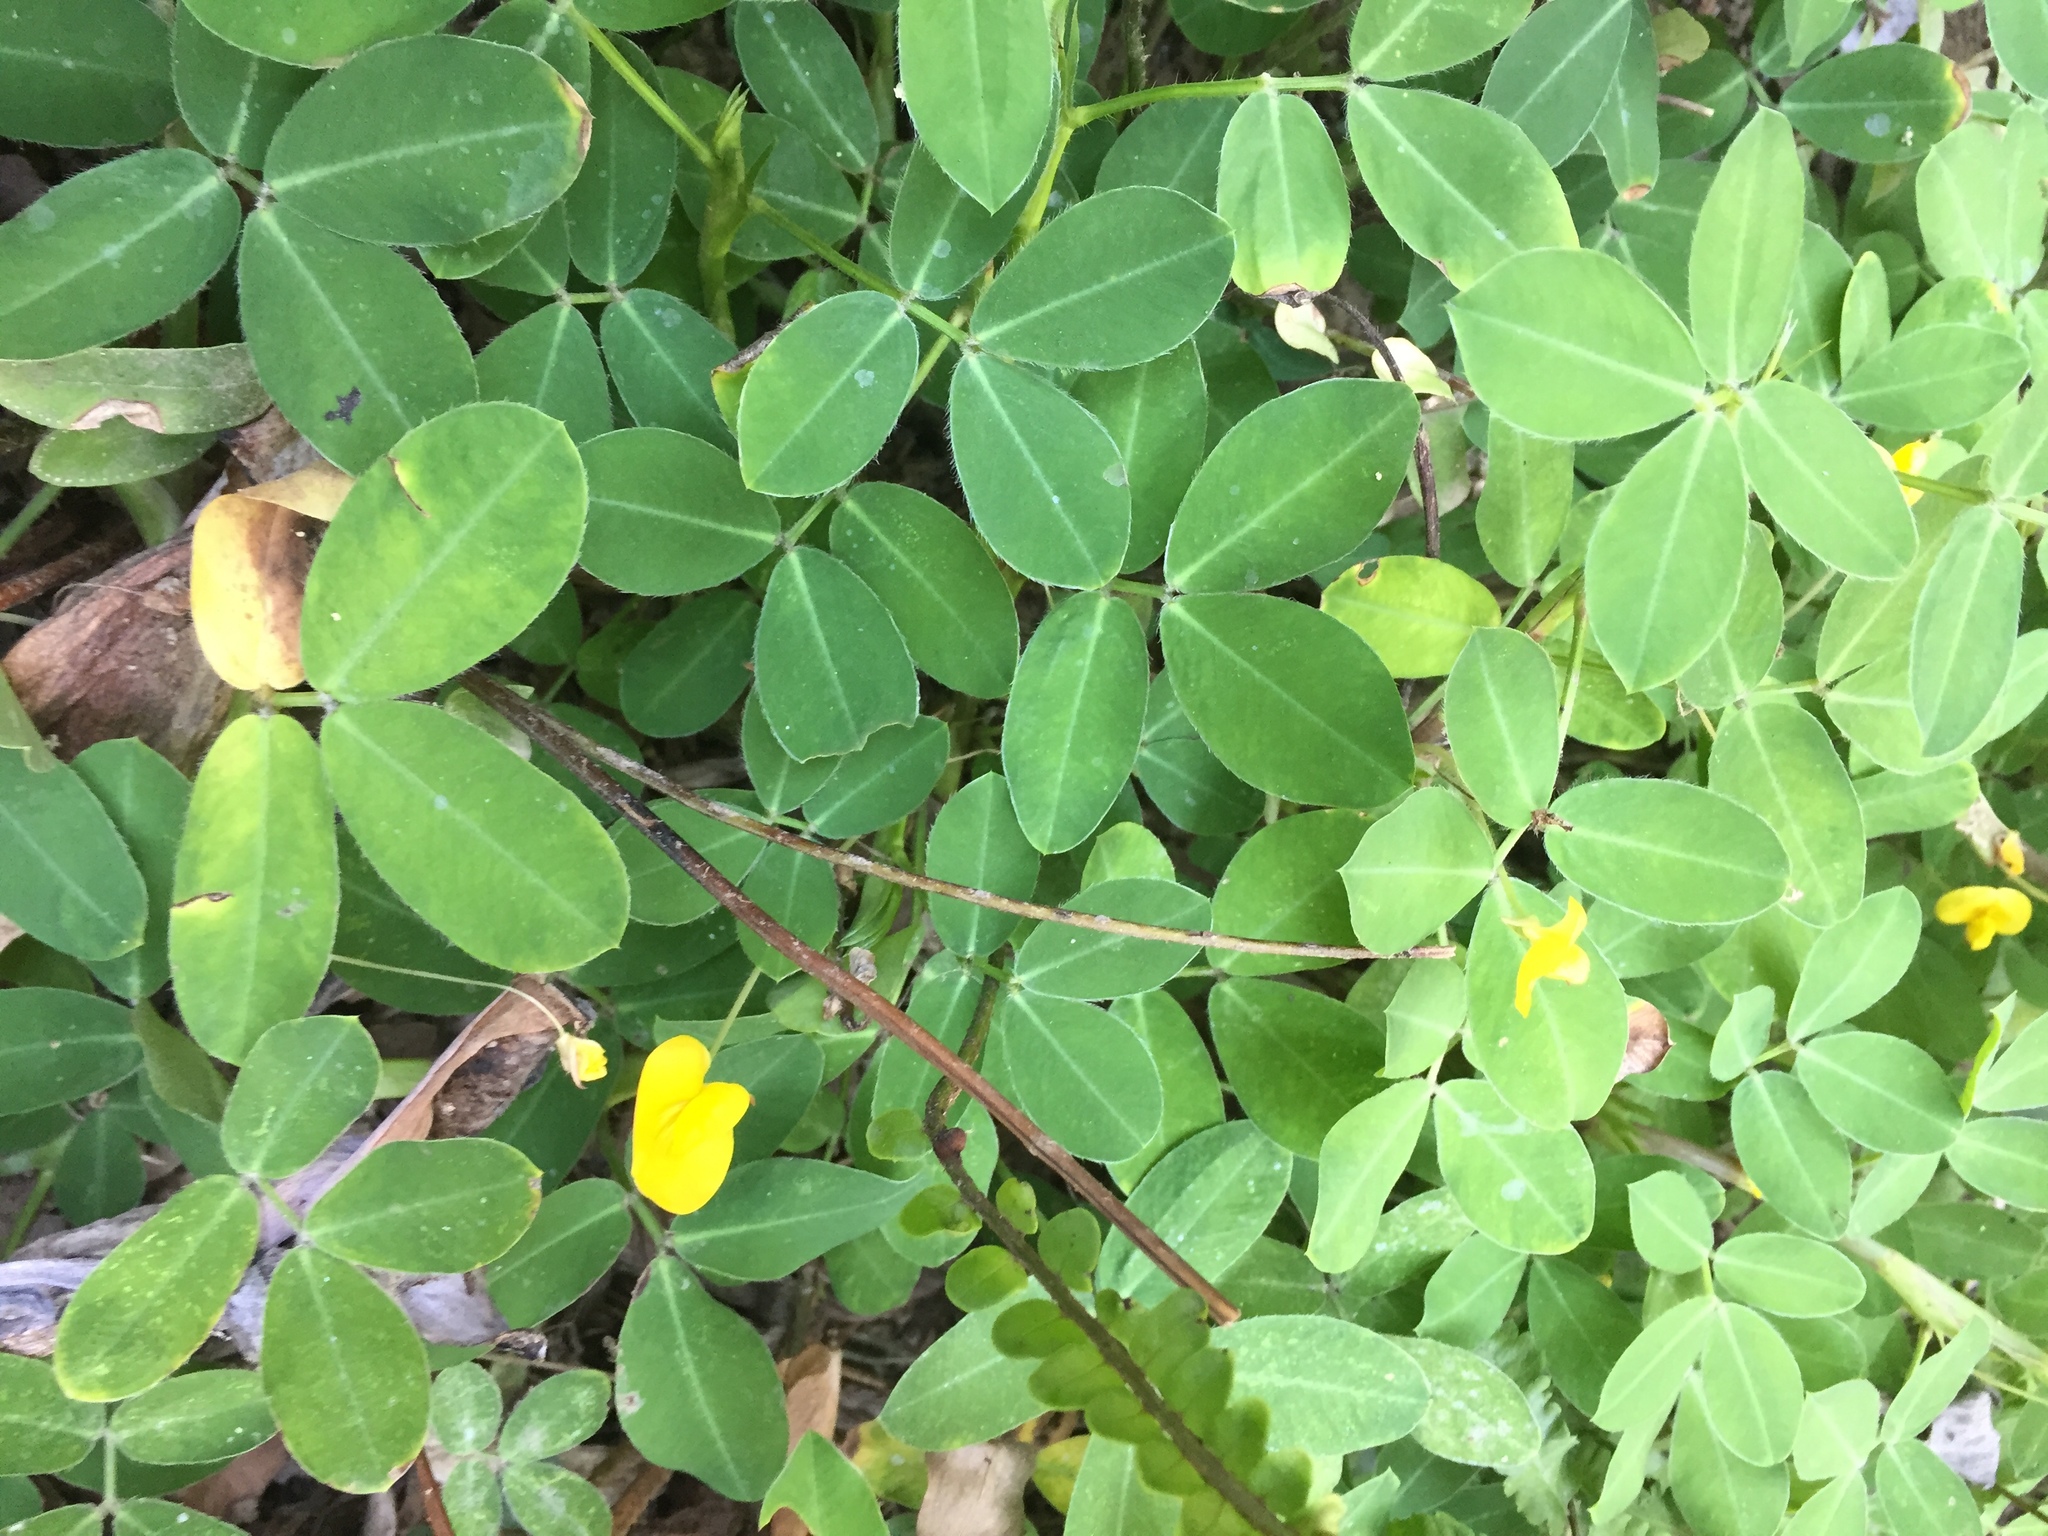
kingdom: Plantae
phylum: Tracheophyta
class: Magnoliopsida
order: Fabales
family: Fabaceae
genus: Arachis
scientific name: Arachis pintoi
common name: Pinto peanut
